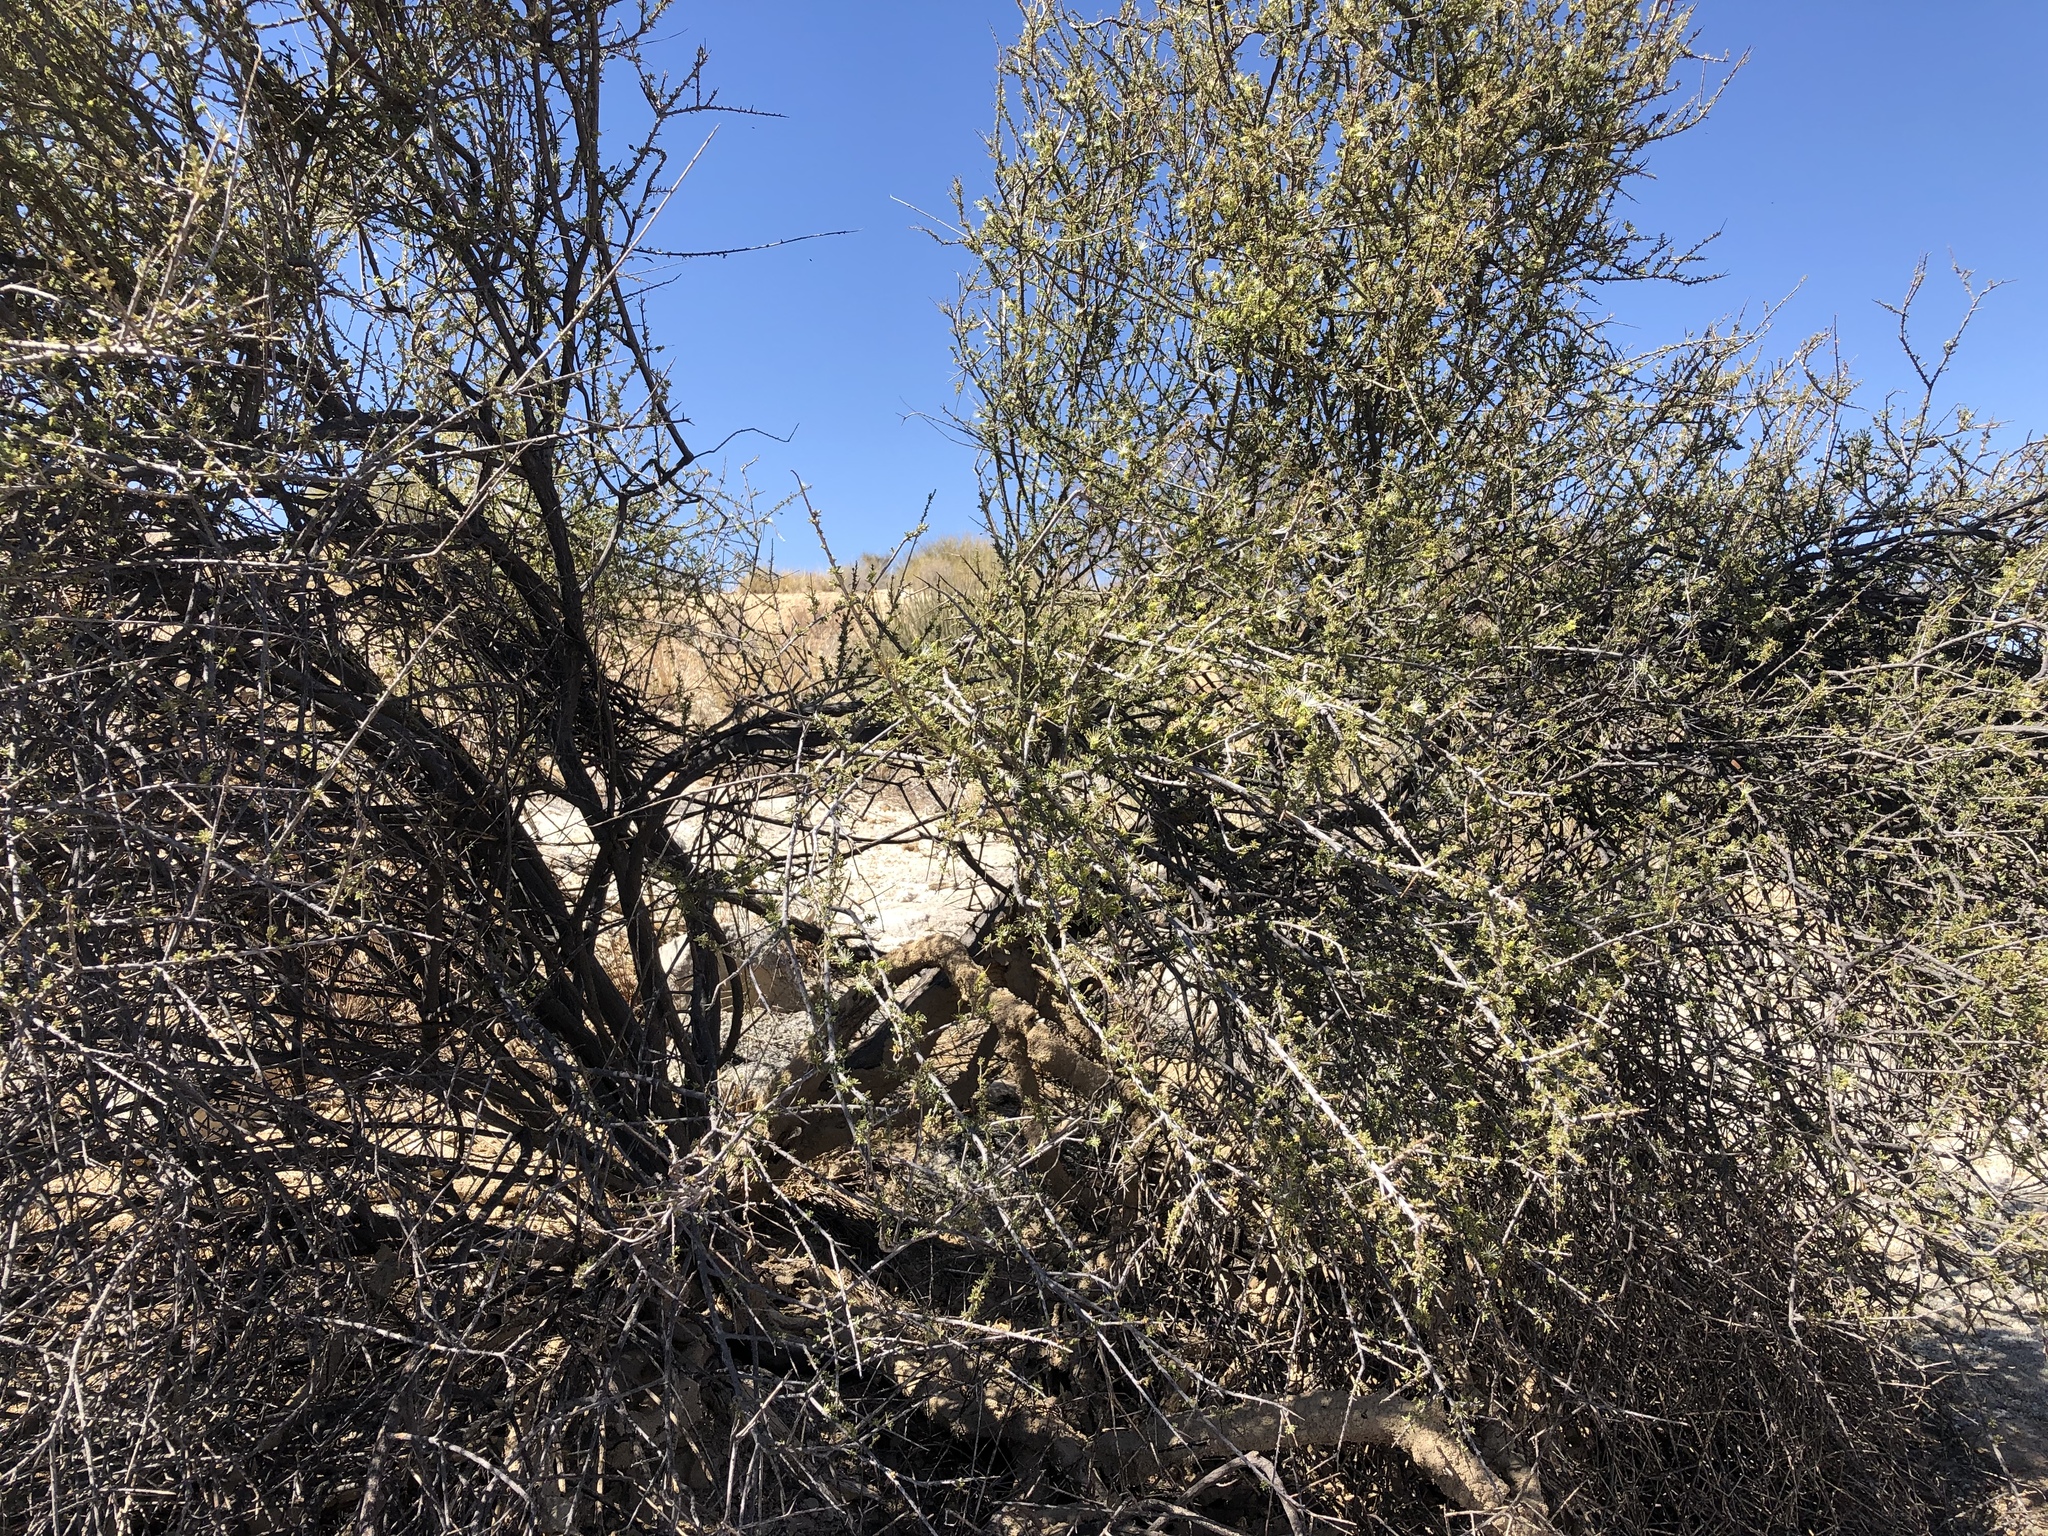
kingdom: Plantae
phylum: Tracheophyta
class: Magnoliopsida
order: Brassicales
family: Capparaceae
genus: Maerua
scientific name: Maerua parvifolia
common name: Dwarf bush-cherry
